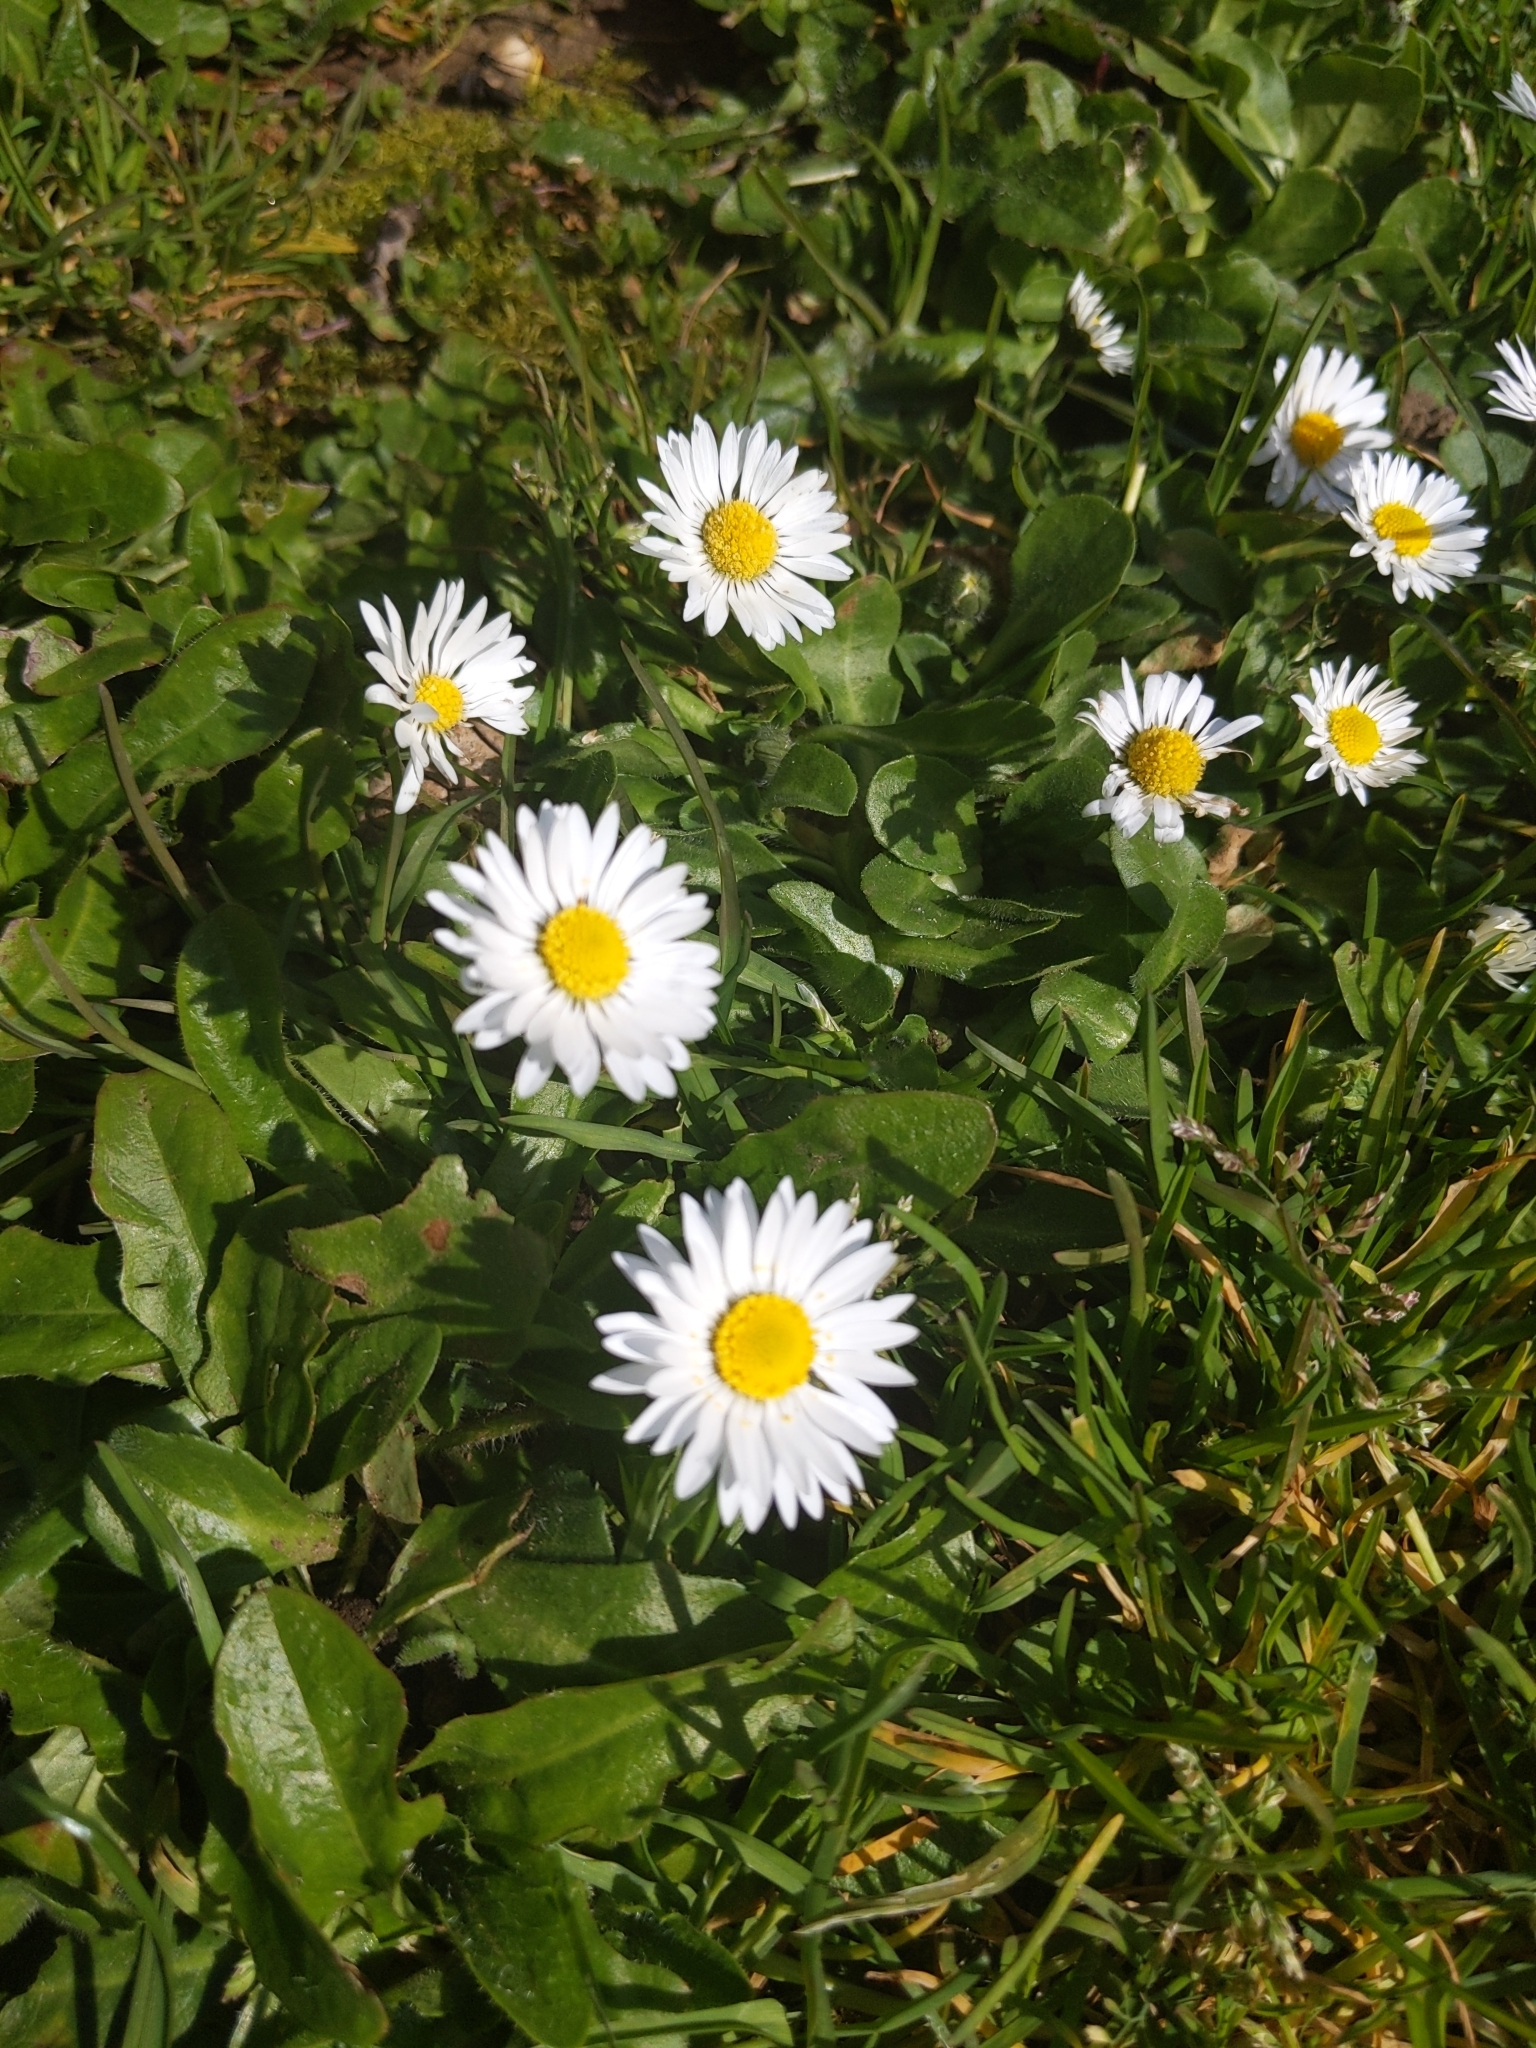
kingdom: Plantae
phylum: Tracheophyta
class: Magnoliopsida
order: Asterales
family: Asteraceae
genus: Bellis
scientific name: Bellis perennis
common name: Lawndaisy
